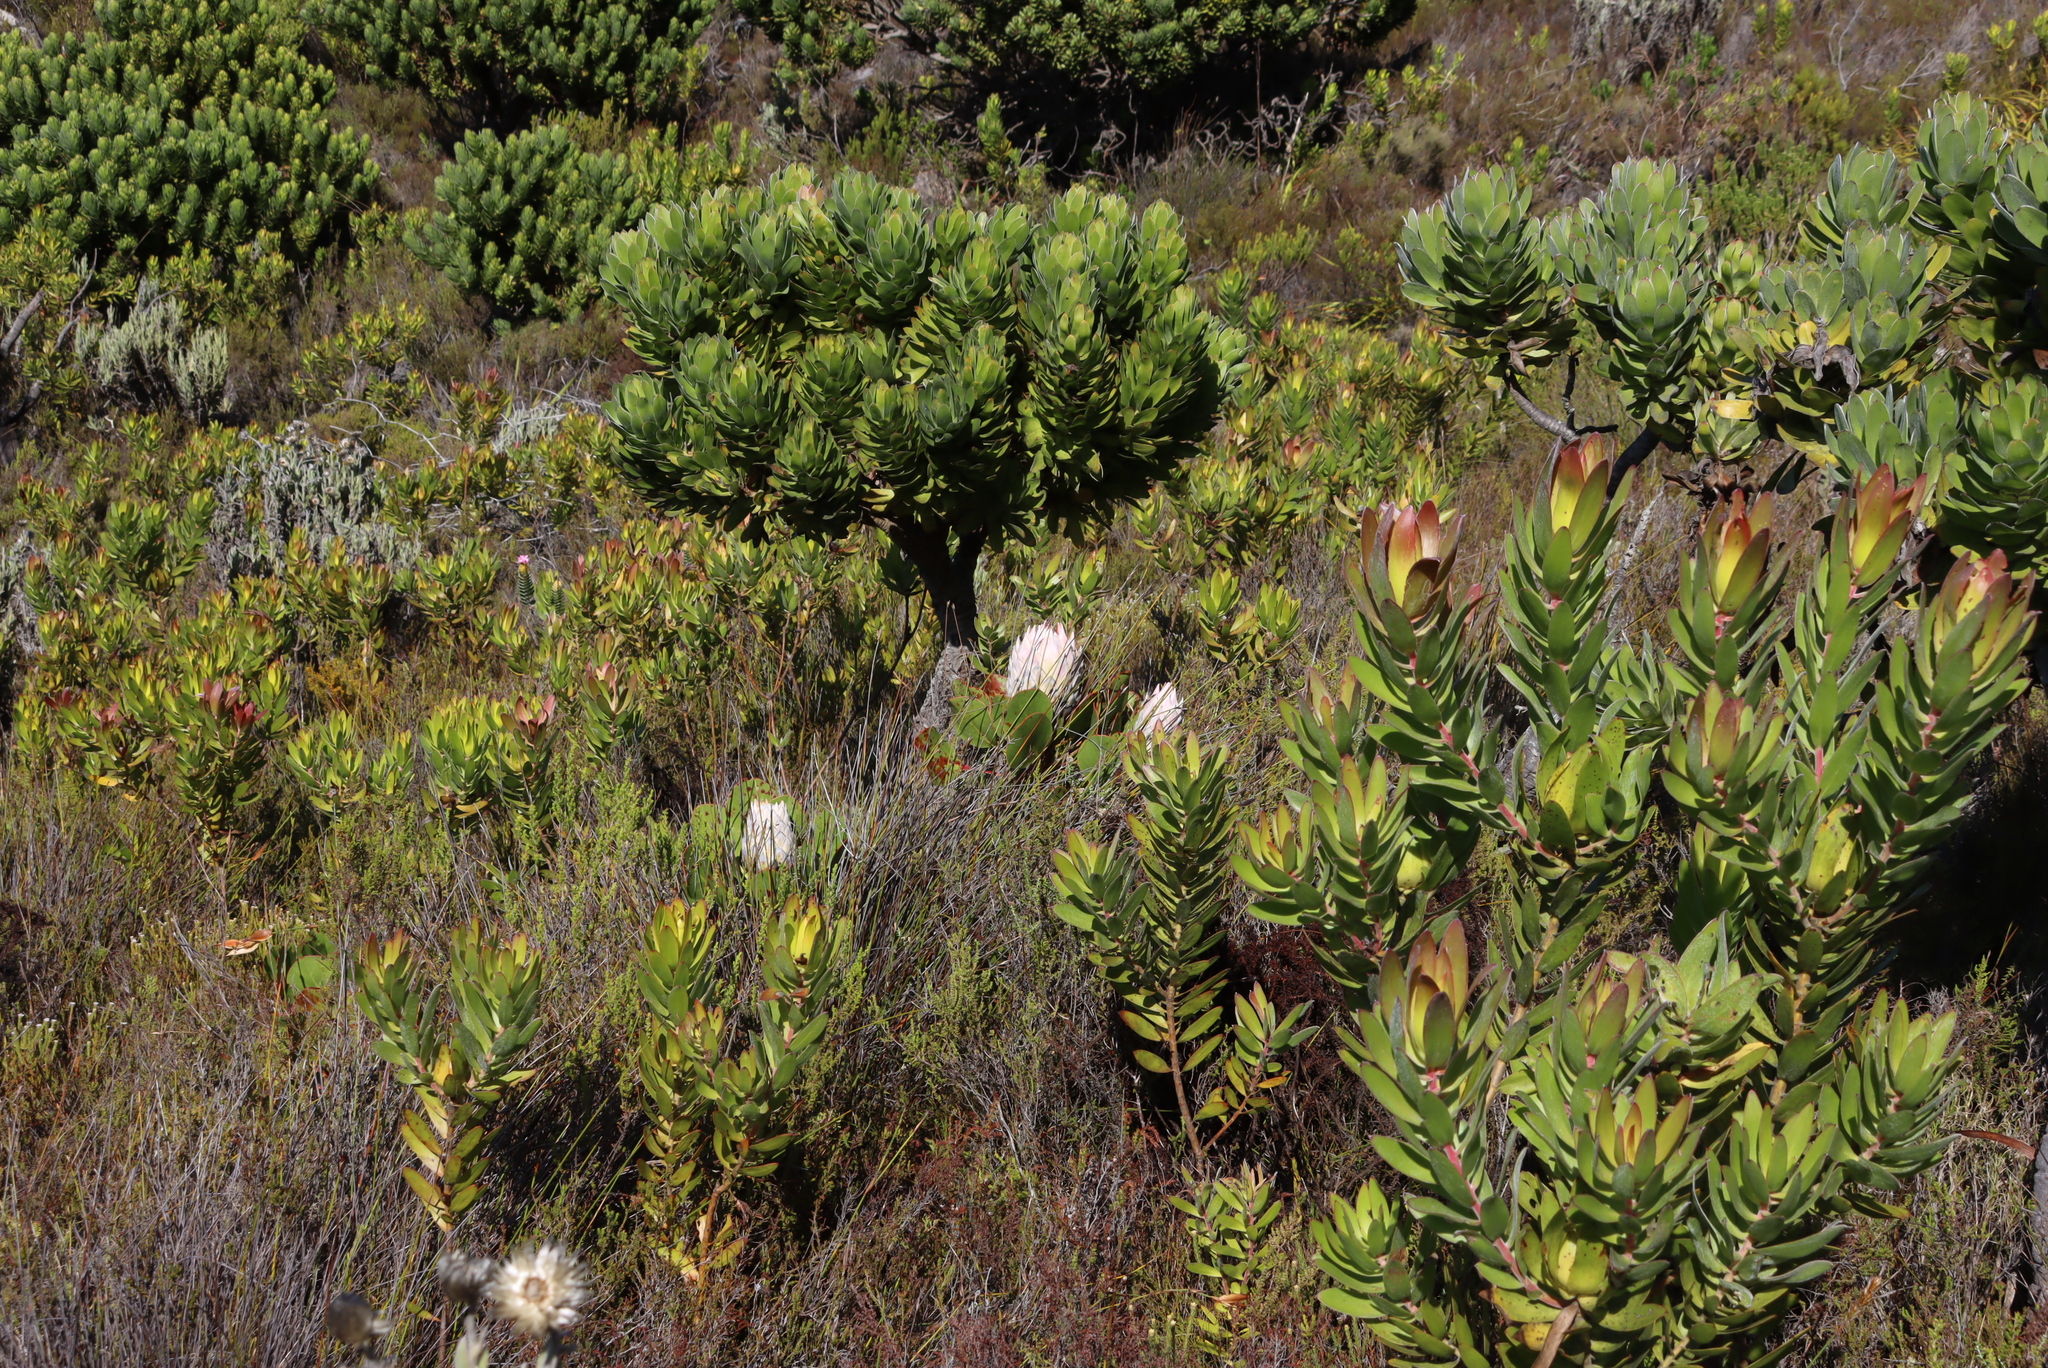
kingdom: Plantae
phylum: Tracheophyta
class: Magnoliopsida
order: Proteales
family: Proteaceae
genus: Protea
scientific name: Protea cynaroides
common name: King protea
